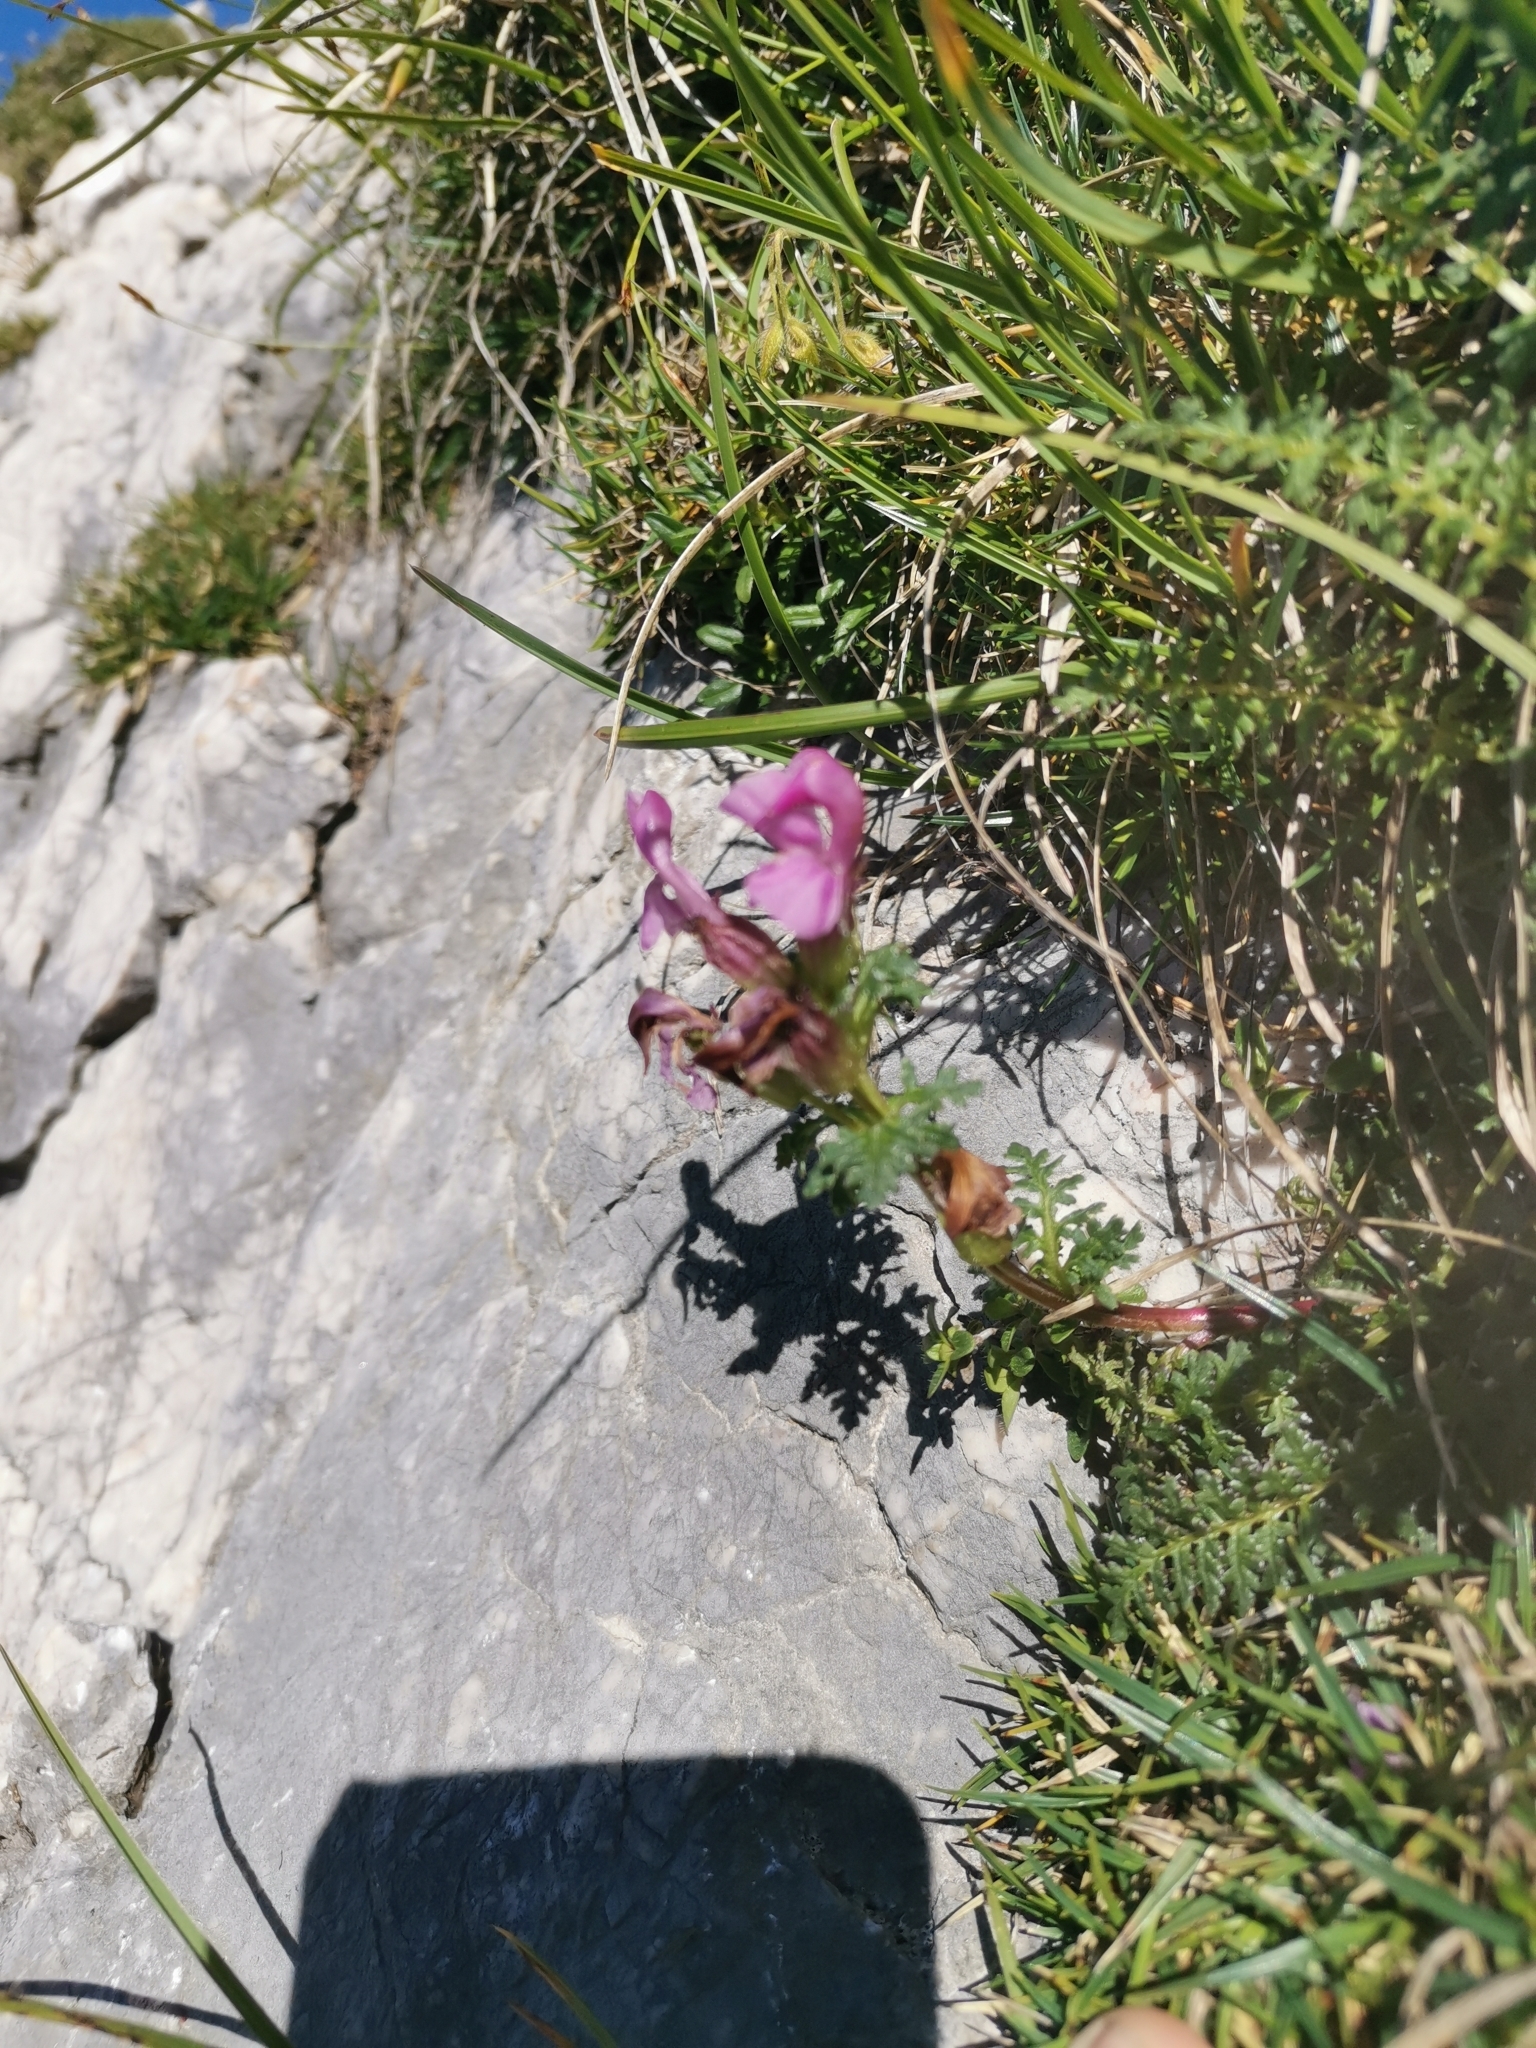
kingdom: Plantae
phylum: Tracheophyta
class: Magnoliopsida
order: Lamiales
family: Orobanchaceae
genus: Pedicularis
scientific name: Pedicularis rostratocapitata
